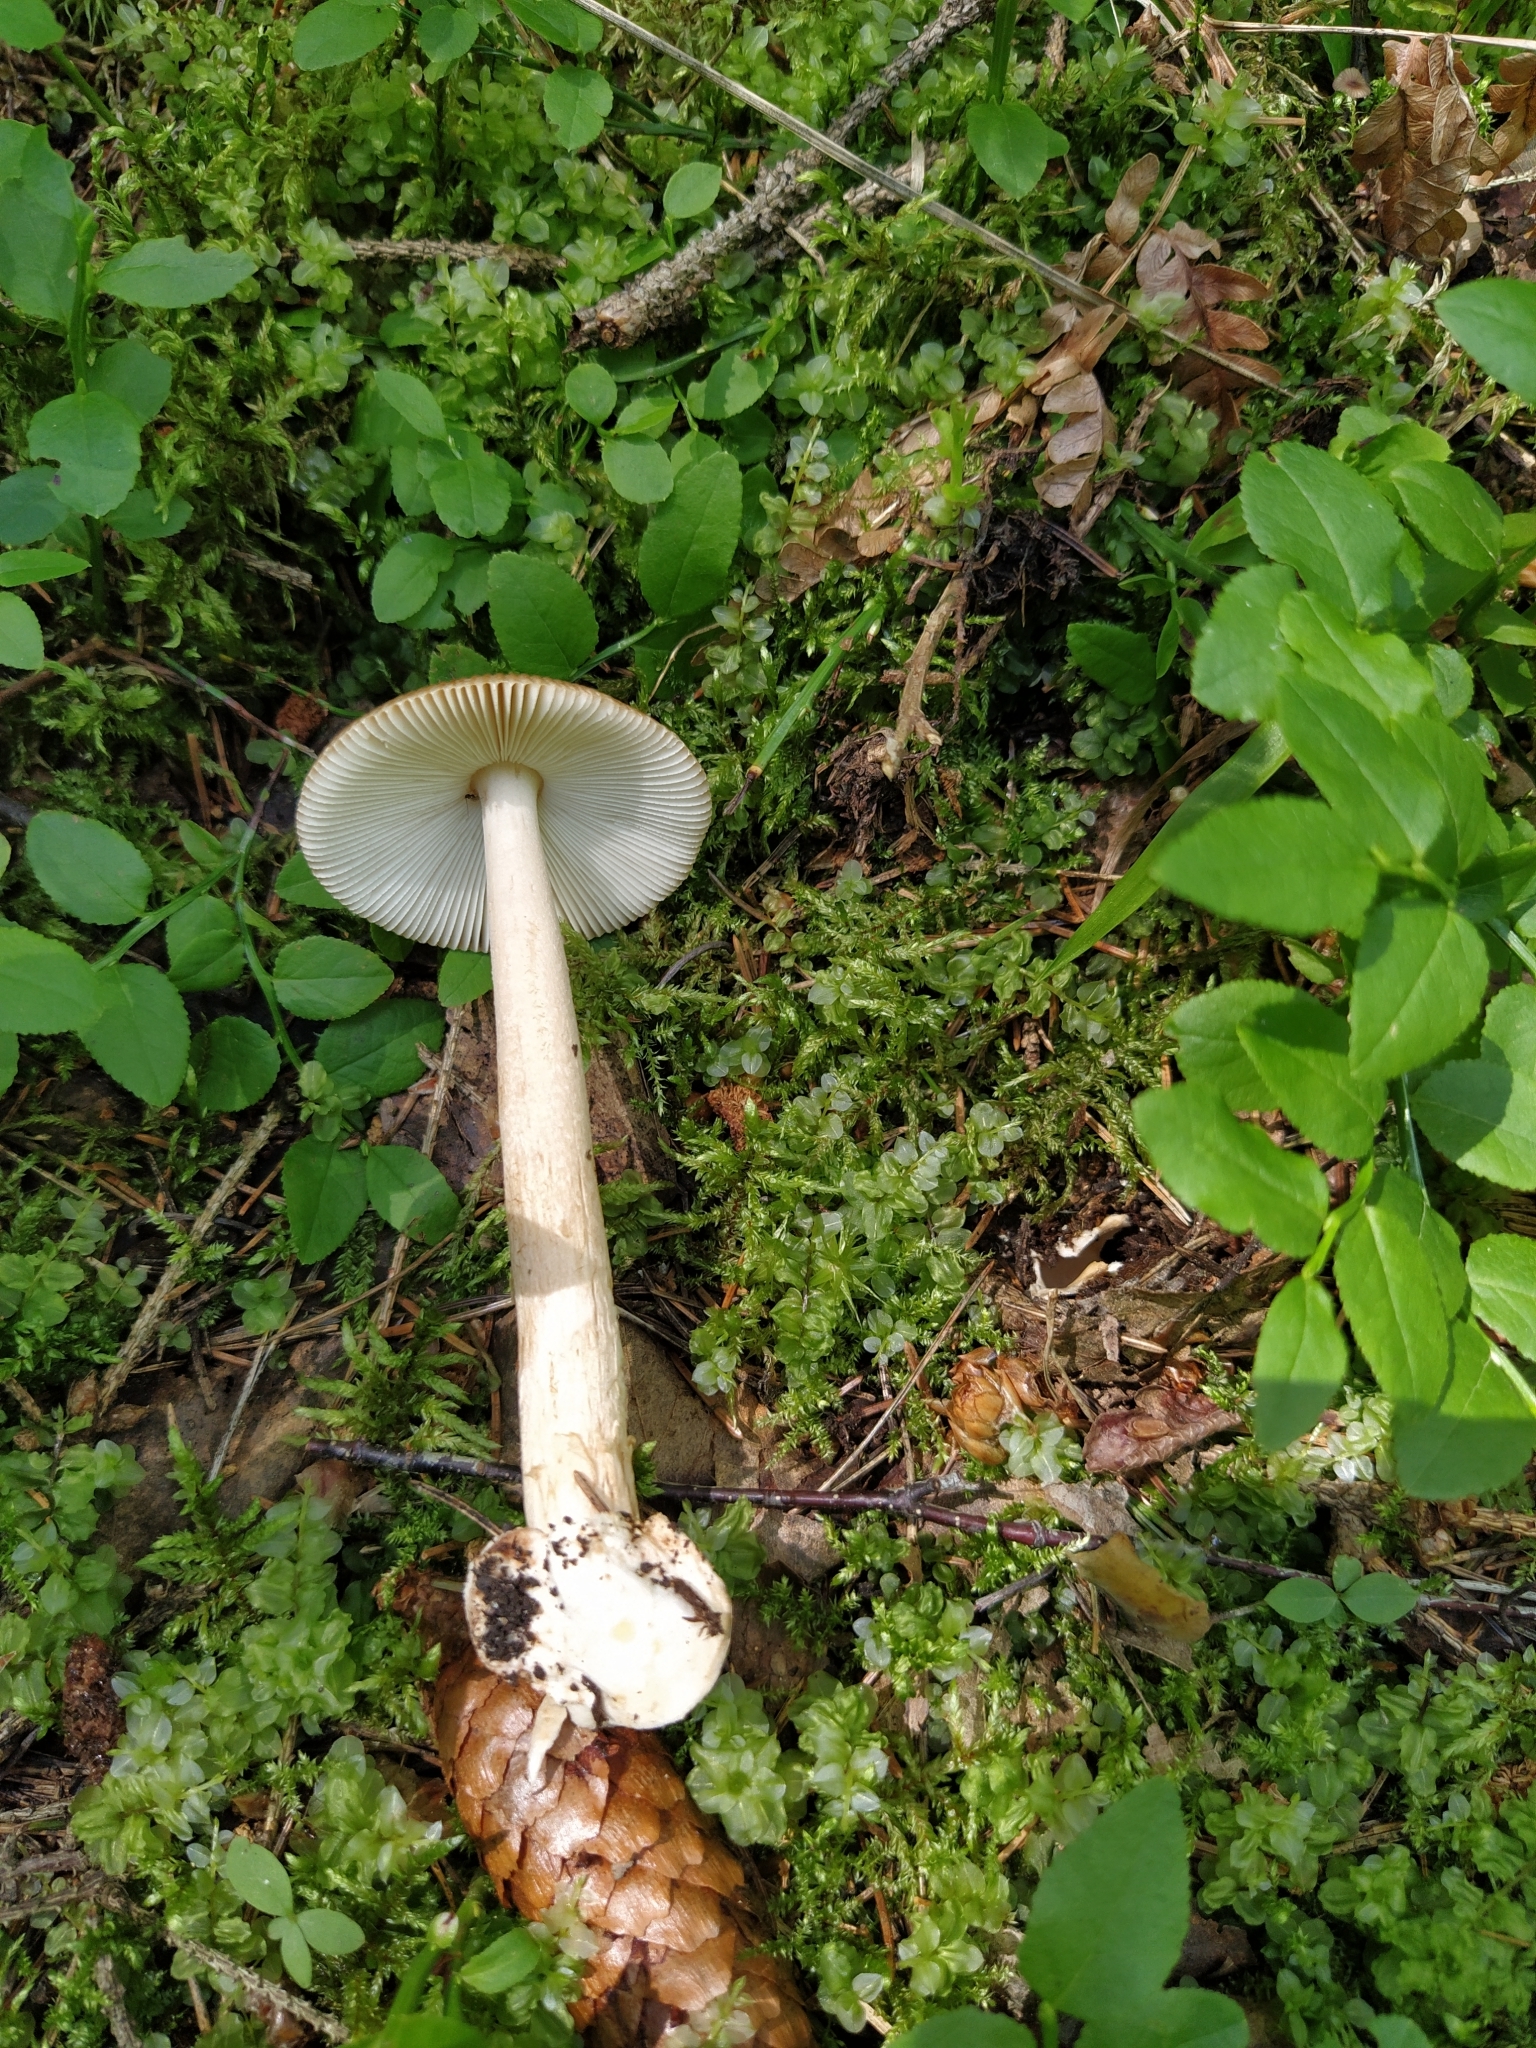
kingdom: Fungi
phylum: Basidiomycota
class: Agaricomycetes
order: Agaricales
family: Amanitaceae
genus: Amanita
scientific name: Amanita fulva
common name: Tawny grisette
